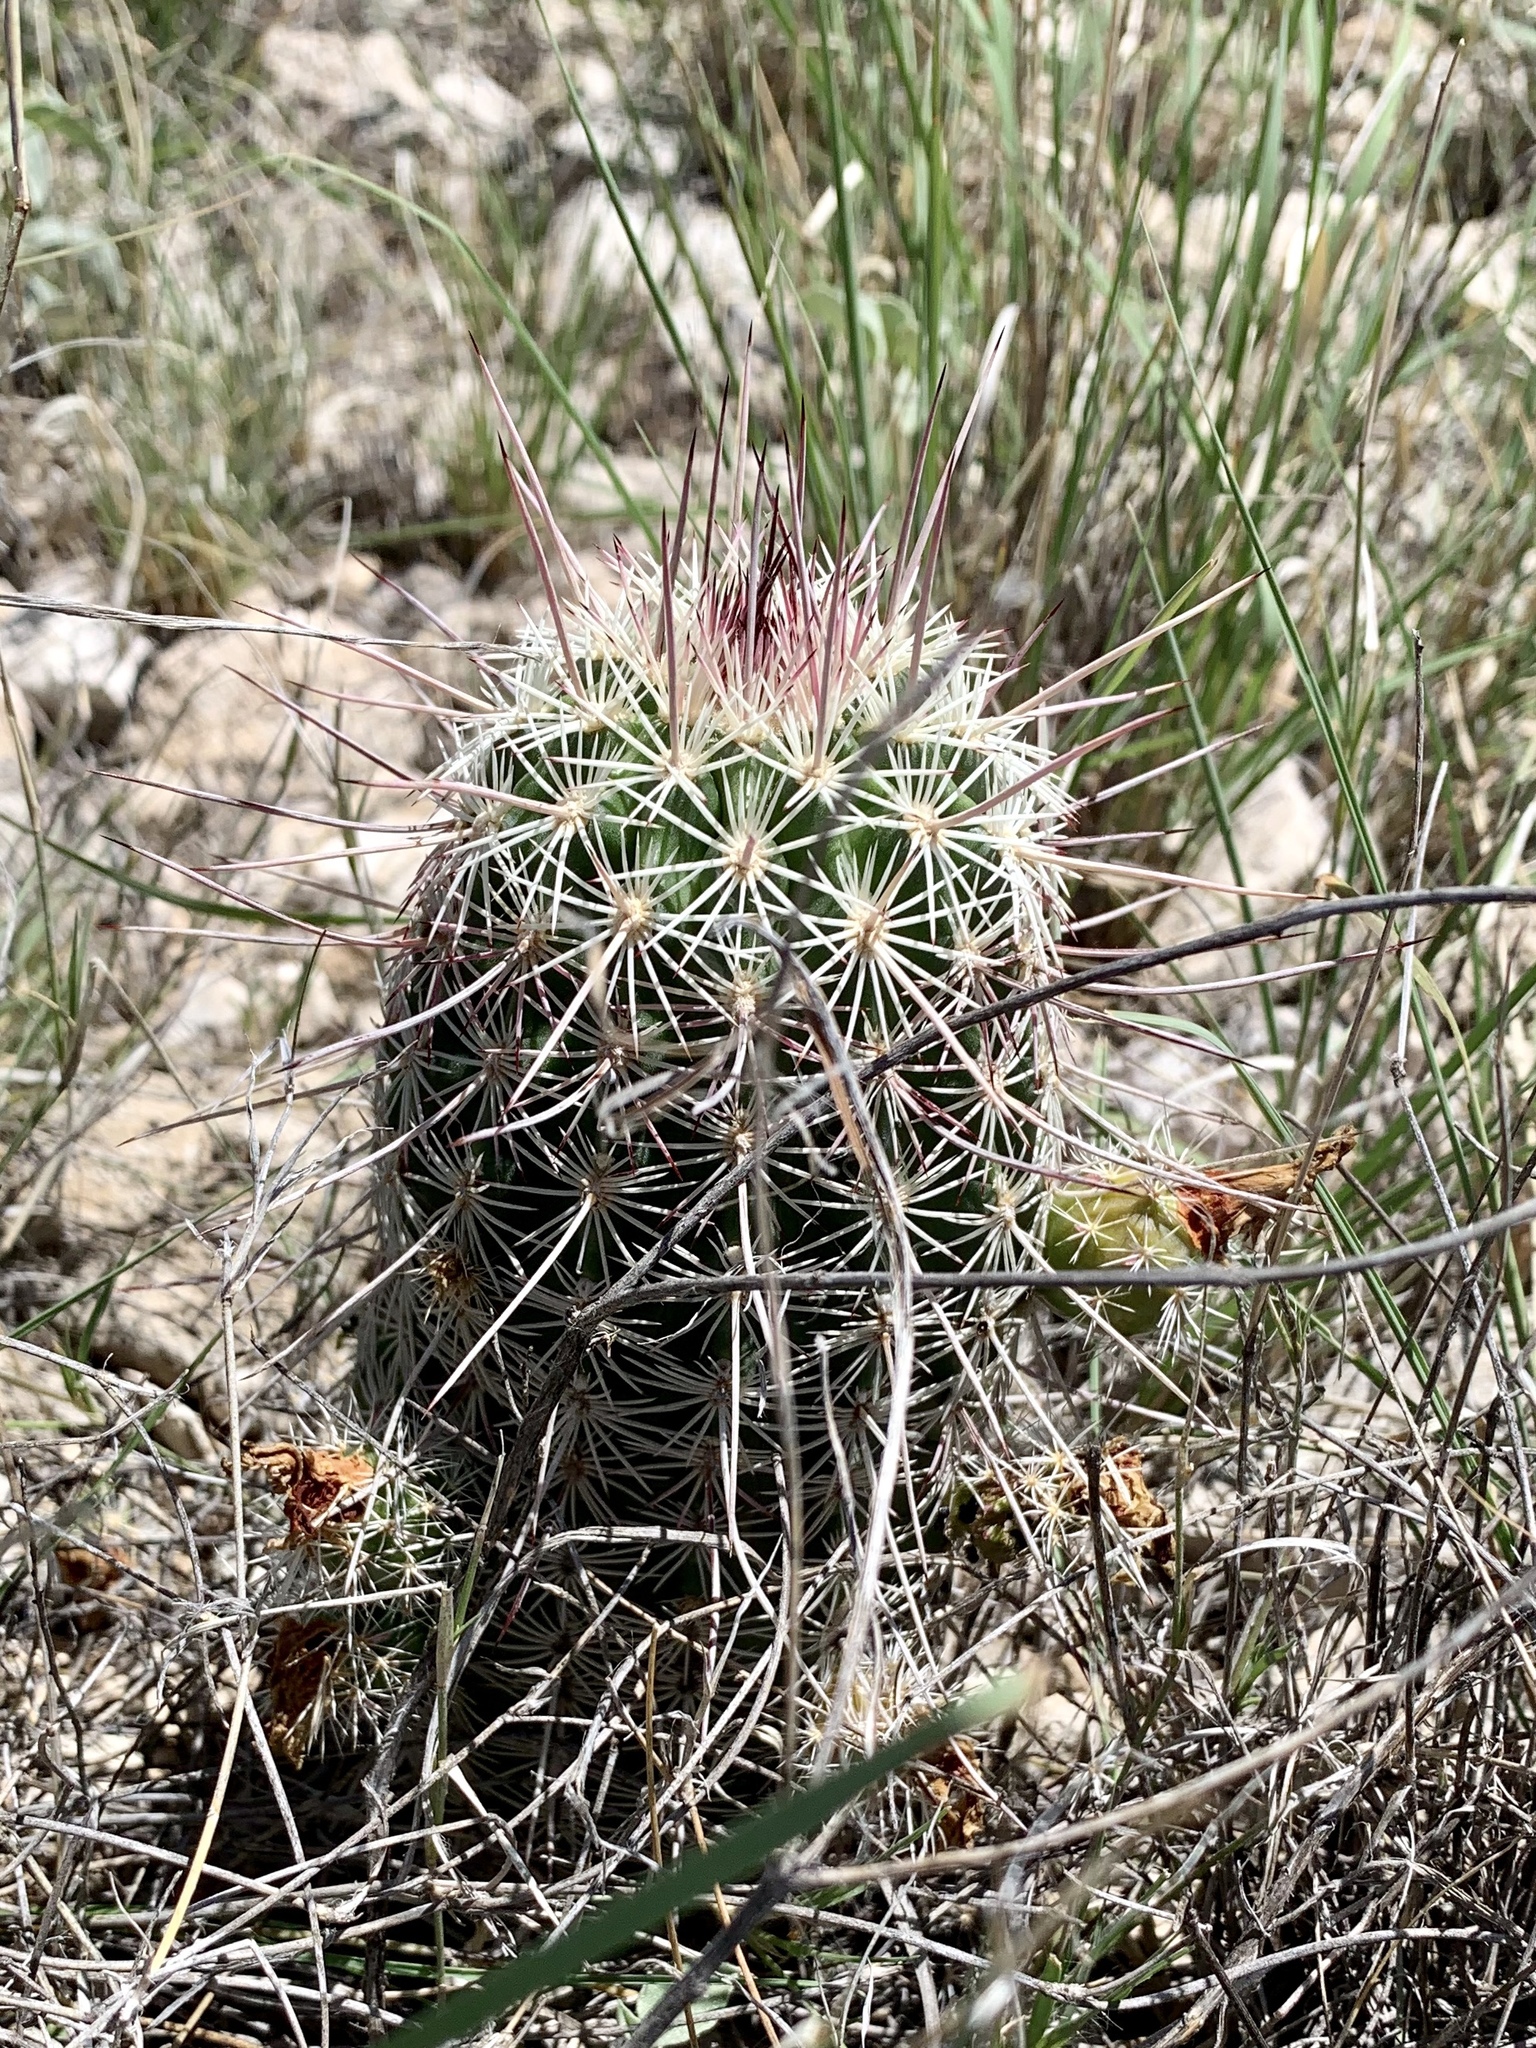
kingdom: Plantae
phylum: Tracheophyta
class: Magnoliopsida
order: Caryophyllales
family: Cactaceae
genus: Echinocereus
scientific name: Echinocereus viridiflorus
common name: Nylon hedgehog cactus
